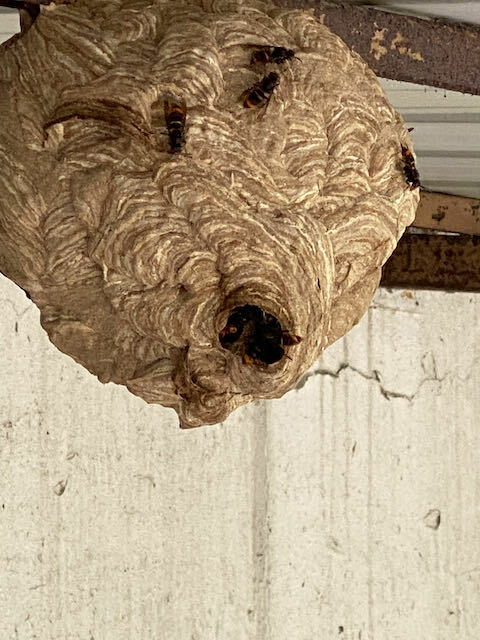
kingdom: Animalia
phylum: Arthropoda
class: Insecta
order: Hymenoptera
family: Vespidae
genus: Vespa
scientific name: Vespa velutina
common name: Asian hornet
